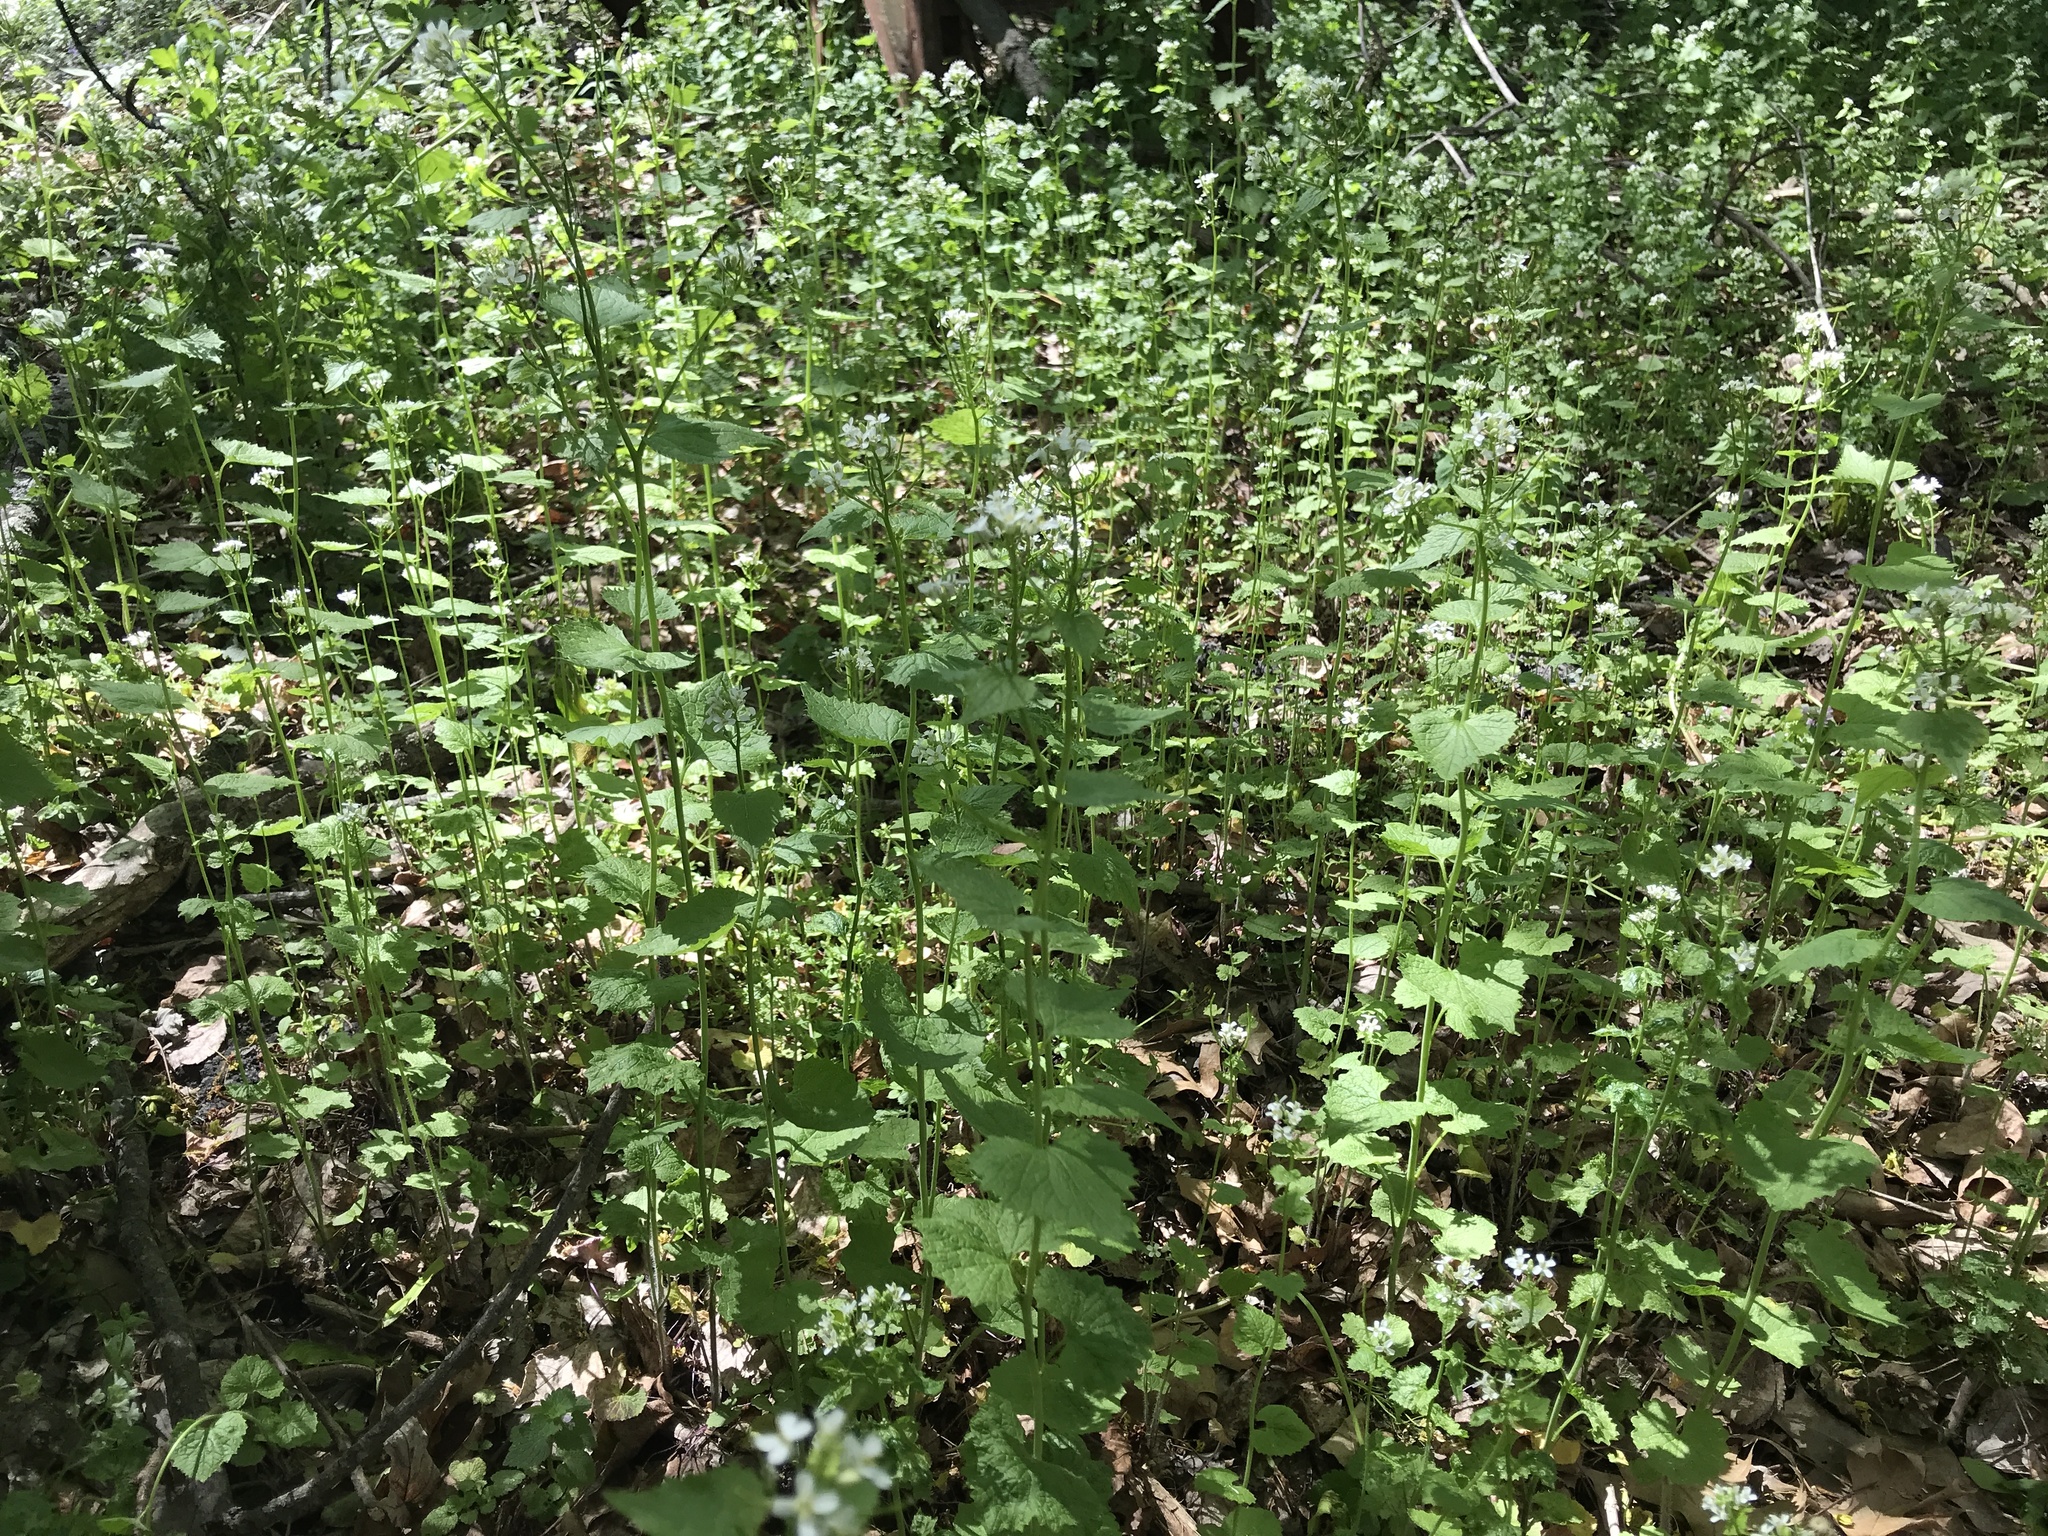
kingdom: Plantae
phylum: Tracheophyta
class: Magnoliopsida
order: Brassicales
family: Brassicaceae
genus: Alliaria
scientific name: Alliaria petiolata
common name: Garlic mustard
